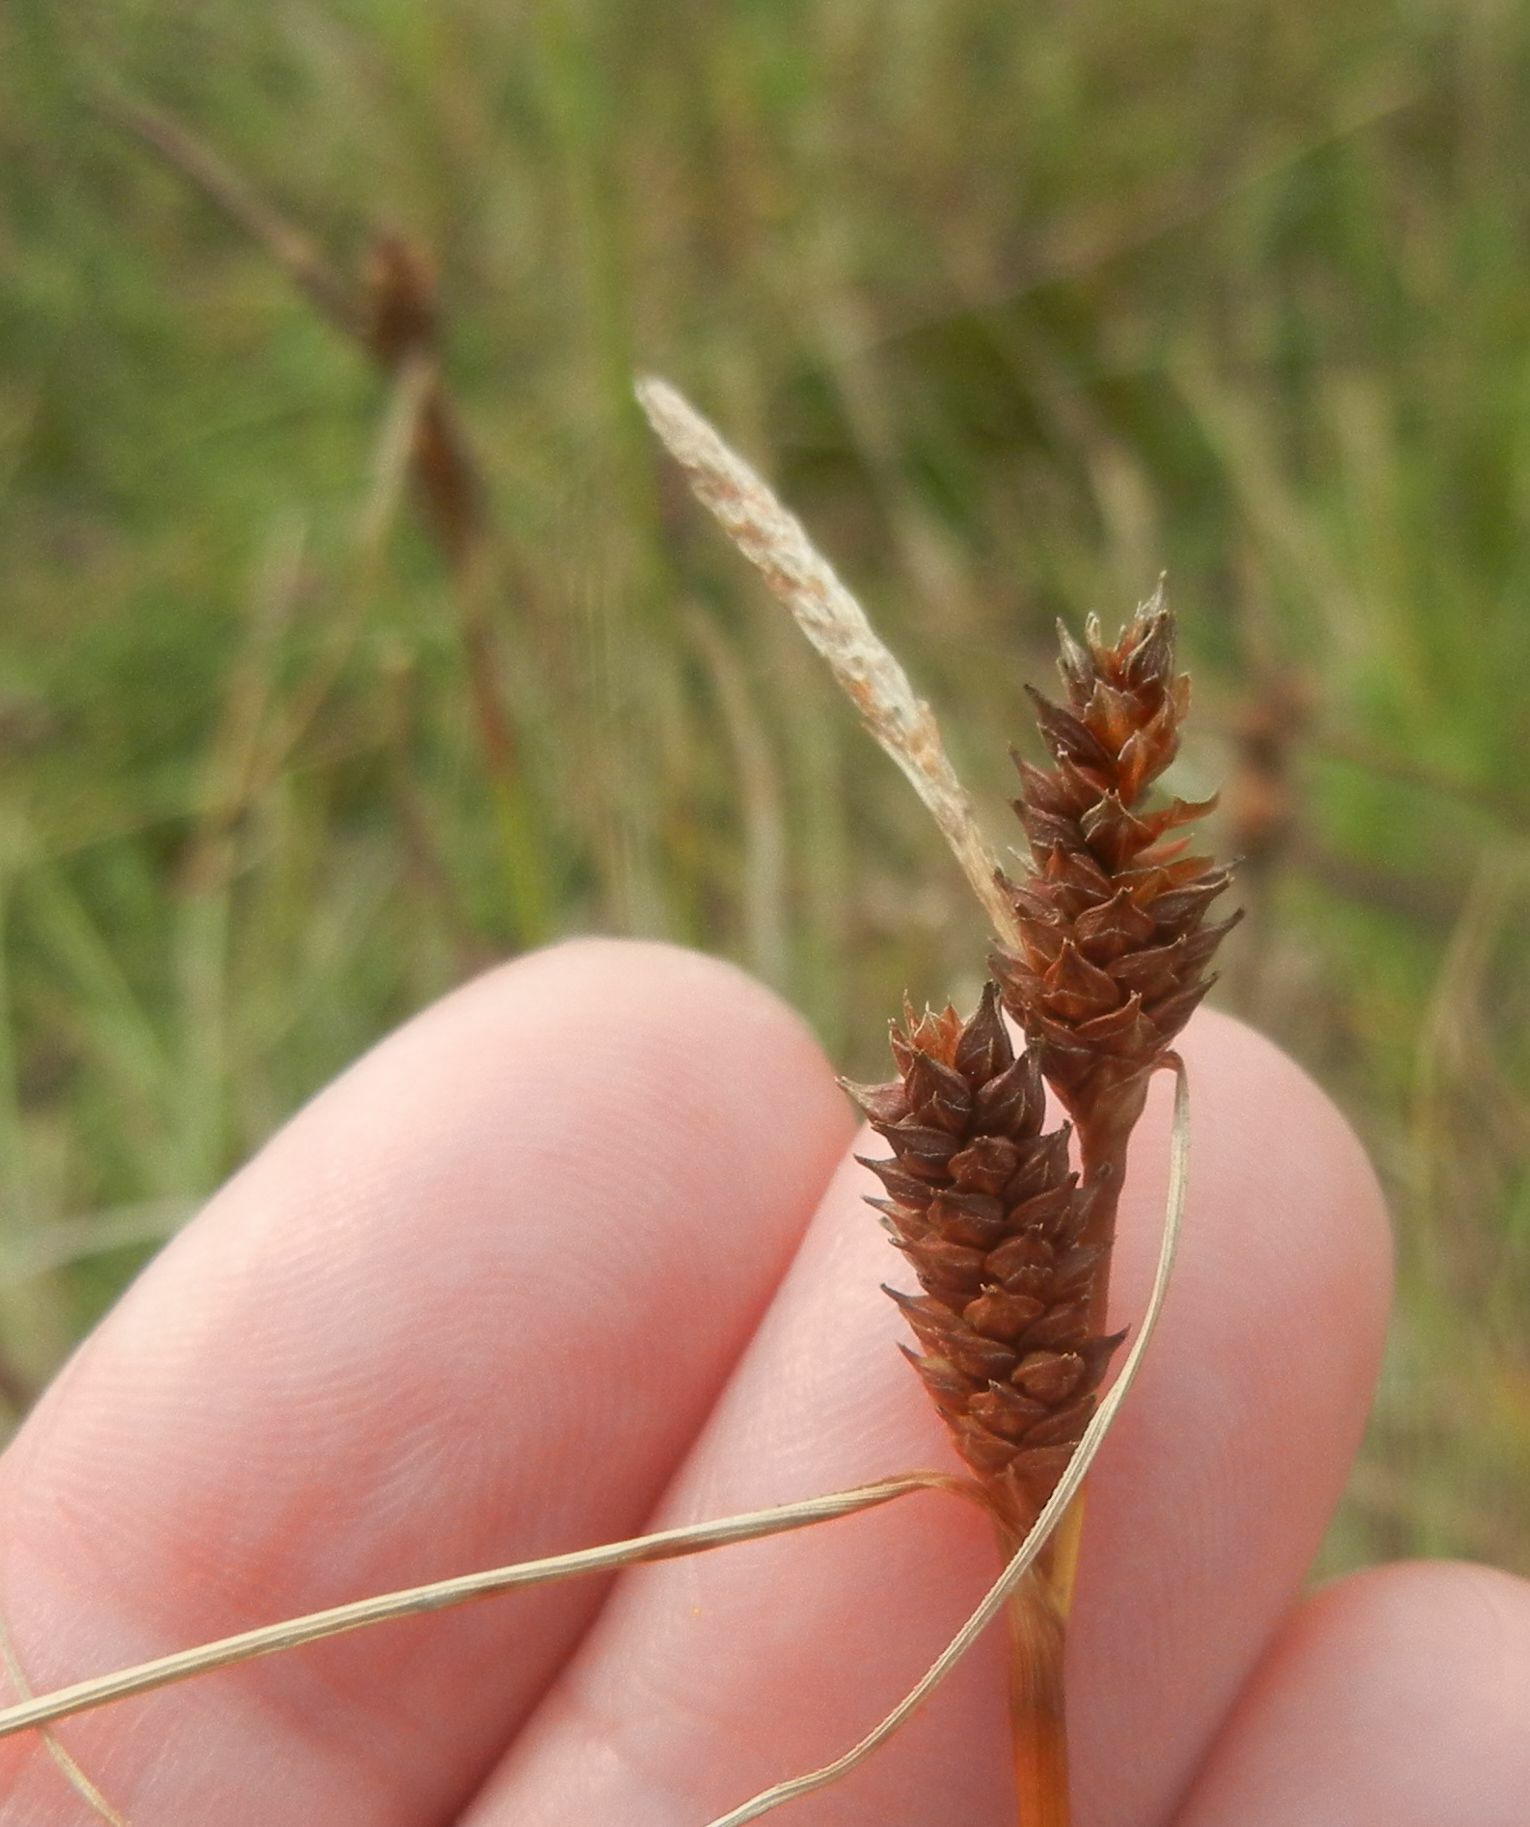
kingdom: Plantae
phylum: Tracheophyta
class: Liliopsida
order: Poales
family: Cyperaceae
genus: Carex
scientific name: Carex extensa
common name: Long-bracted sedge
